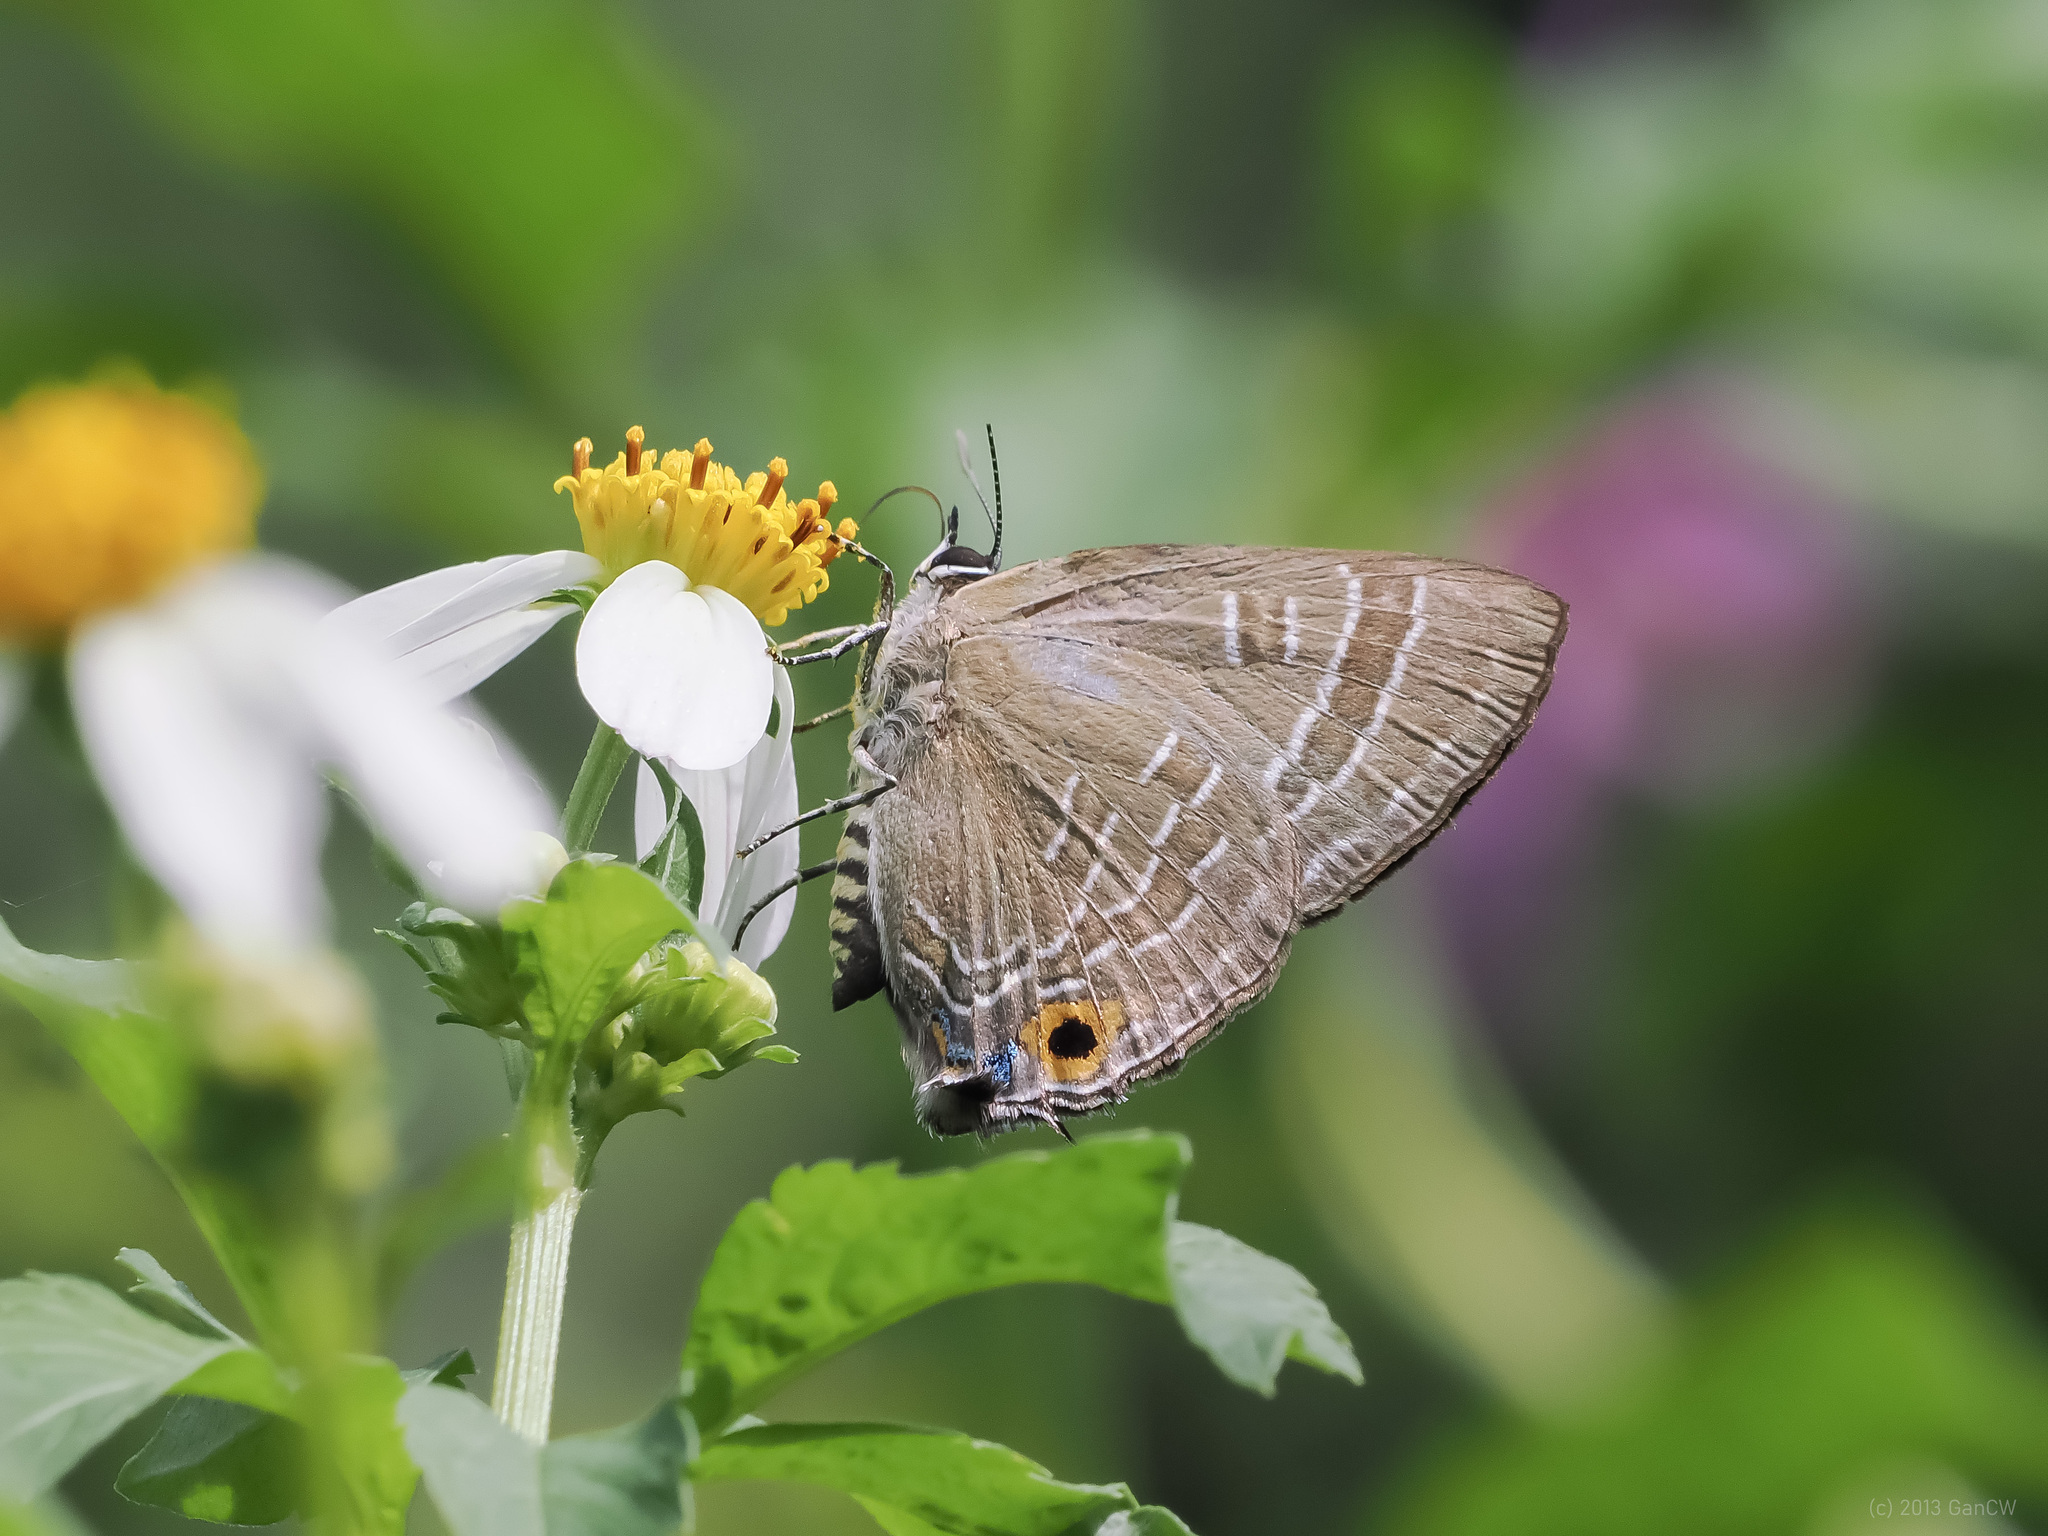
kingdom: Animalia
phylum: Arthropoda
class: Insecta
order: Lepidoptera
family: Lycaenidae
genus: Deudorix
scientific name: Deudorix epijarbas
